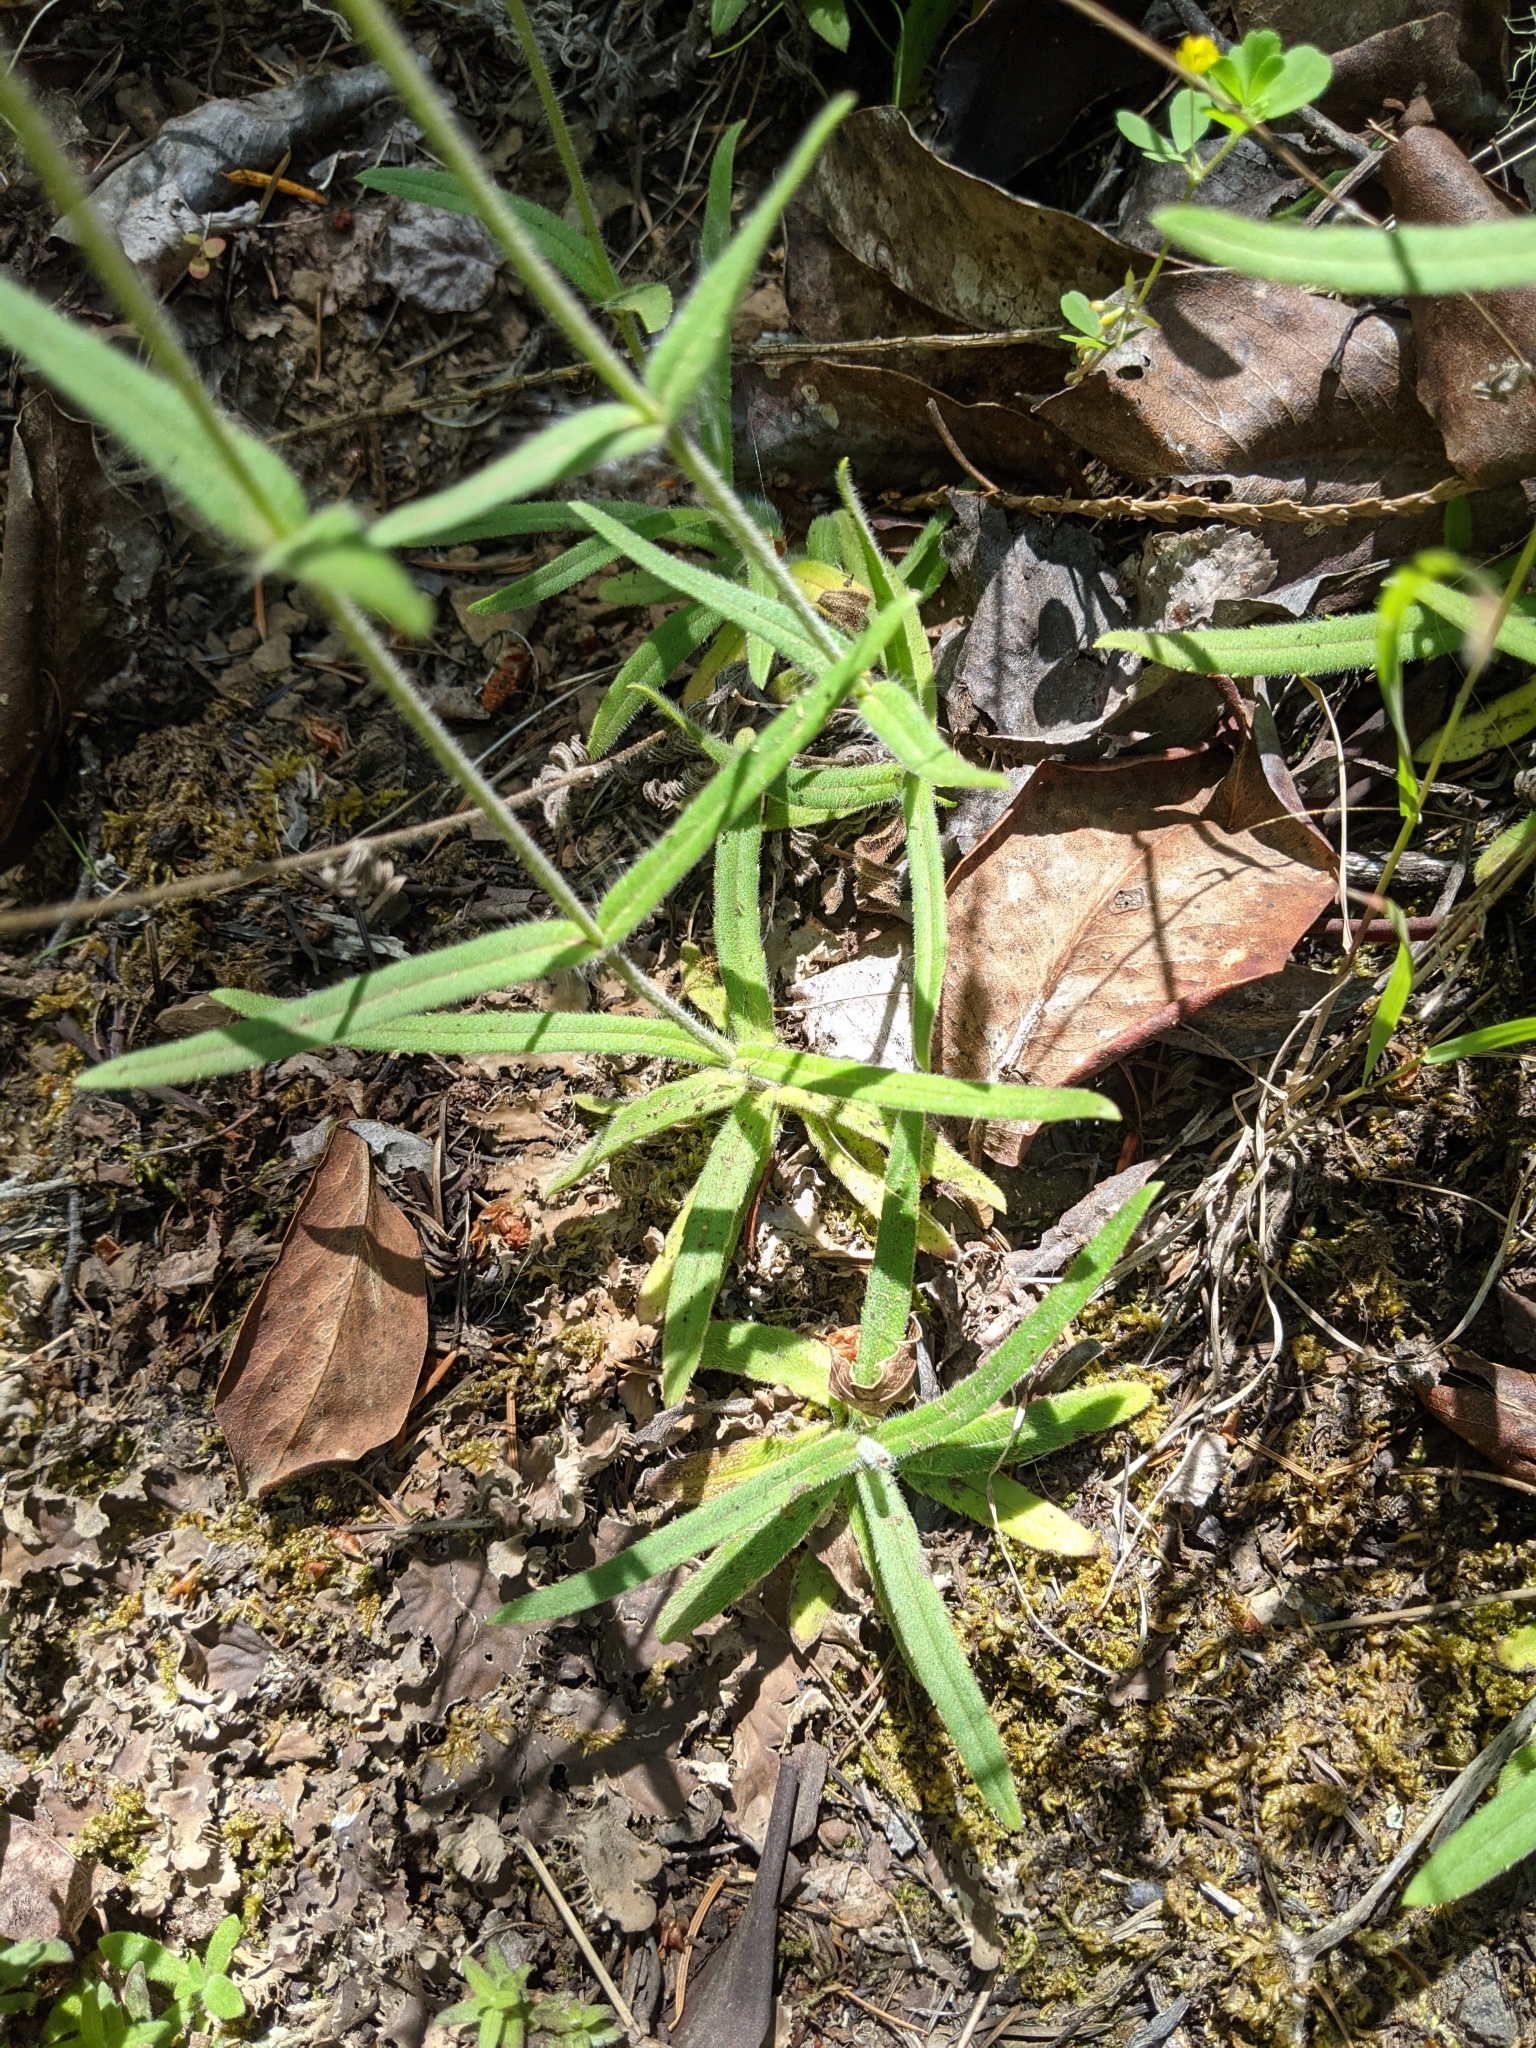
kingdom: Plantae
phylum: Tracheophyta
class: Magnoliopsida
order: Asterales
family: Asteraceae
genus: Anisocarpus
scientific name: Anisocarpus madioides
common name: Woodland madia
